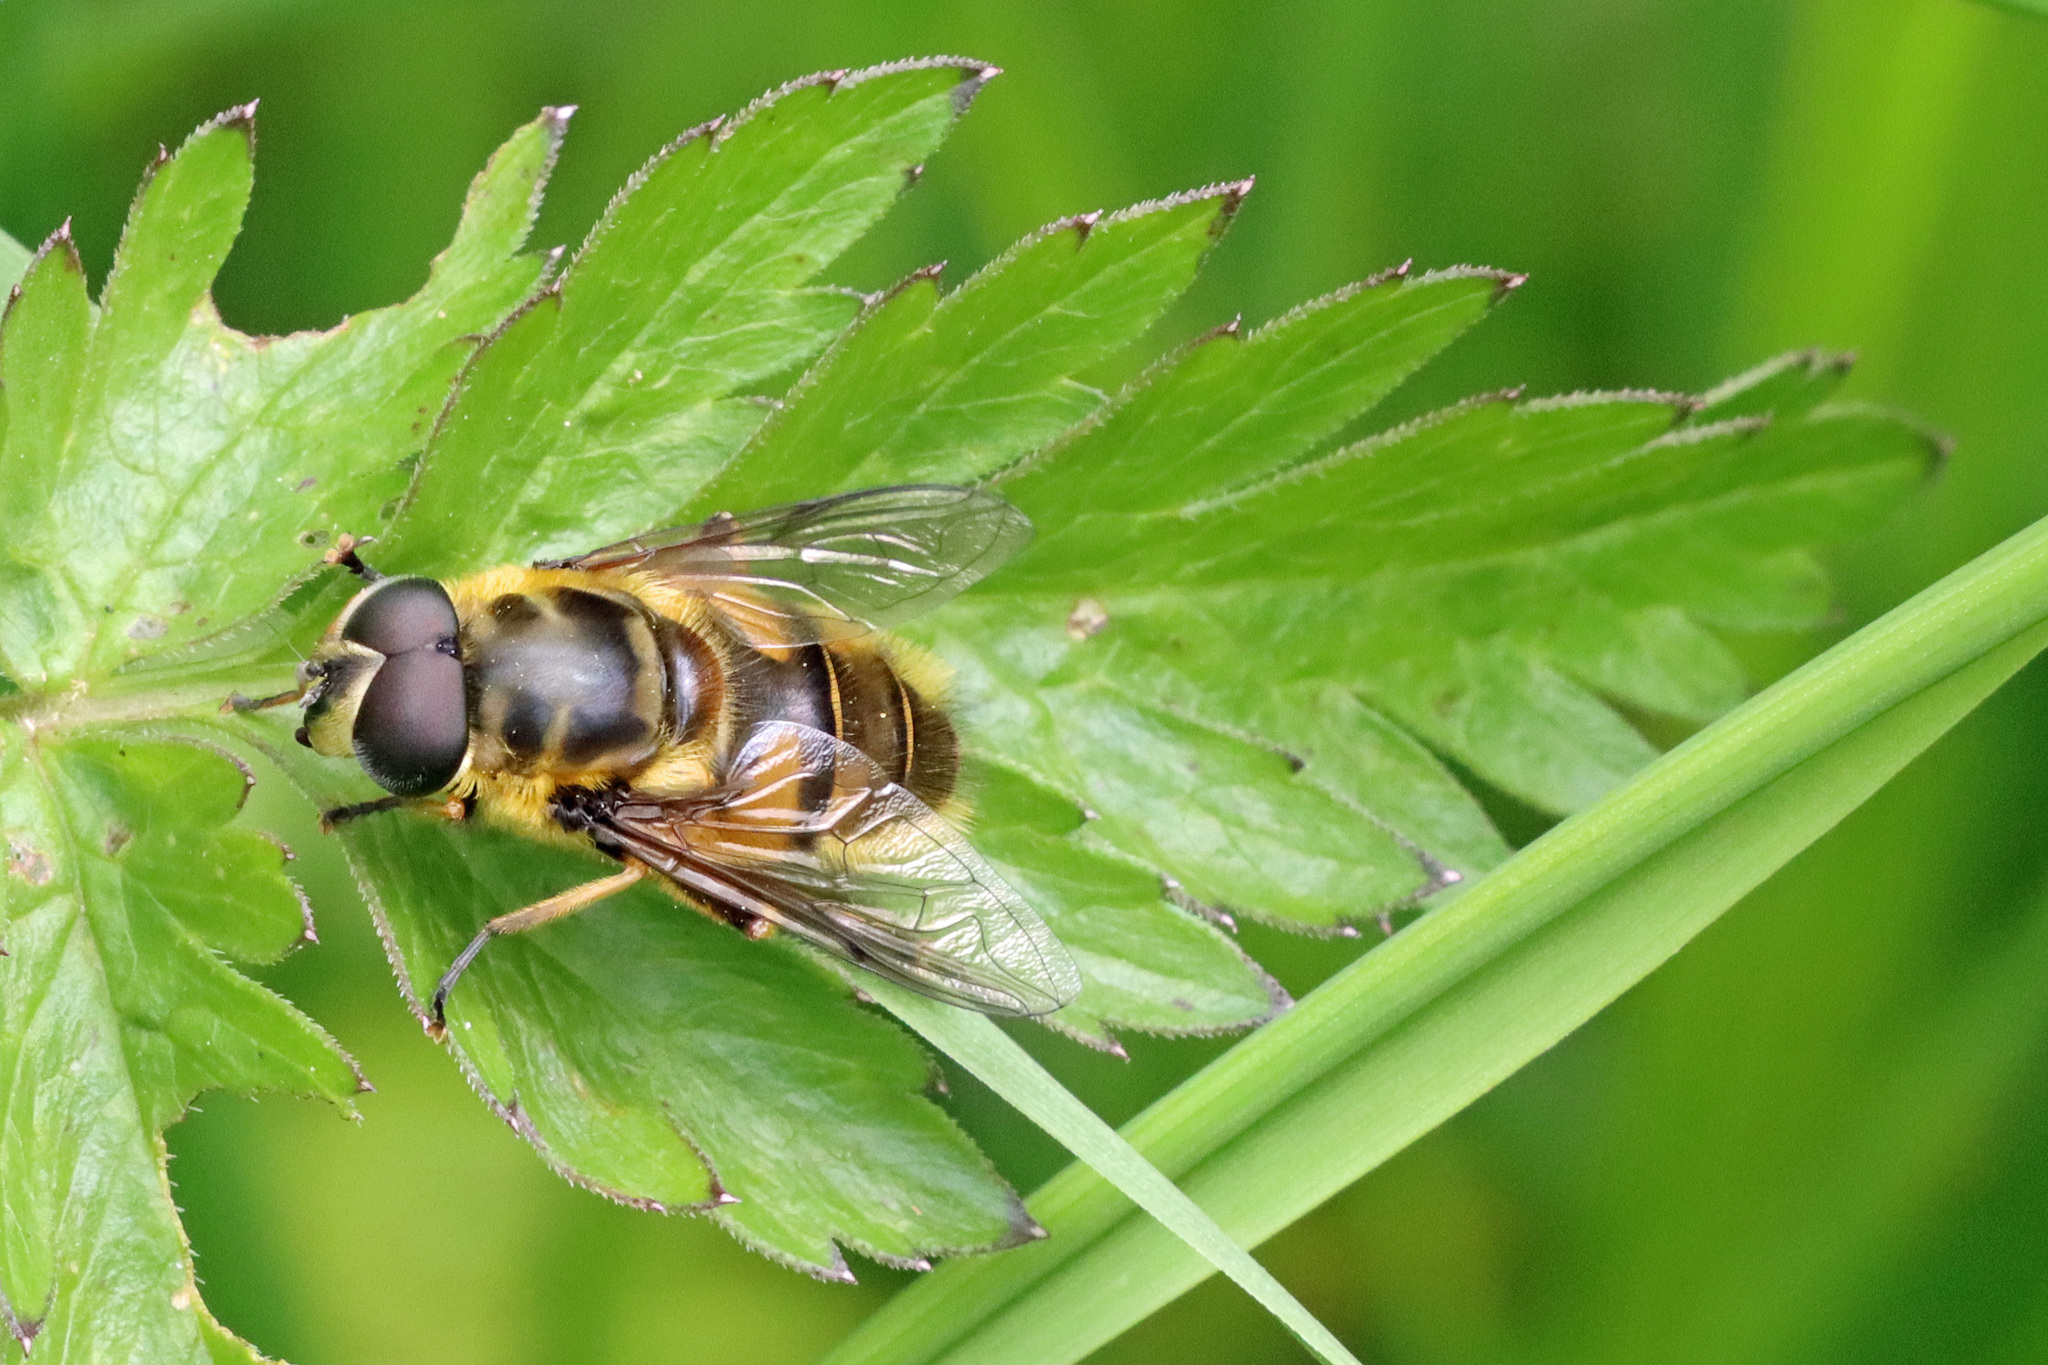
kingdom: Animalia
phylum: Arthropoda
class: Insecta
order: Diptera
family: Syrphidae
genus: Myathropa
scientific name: Myathropa florea
